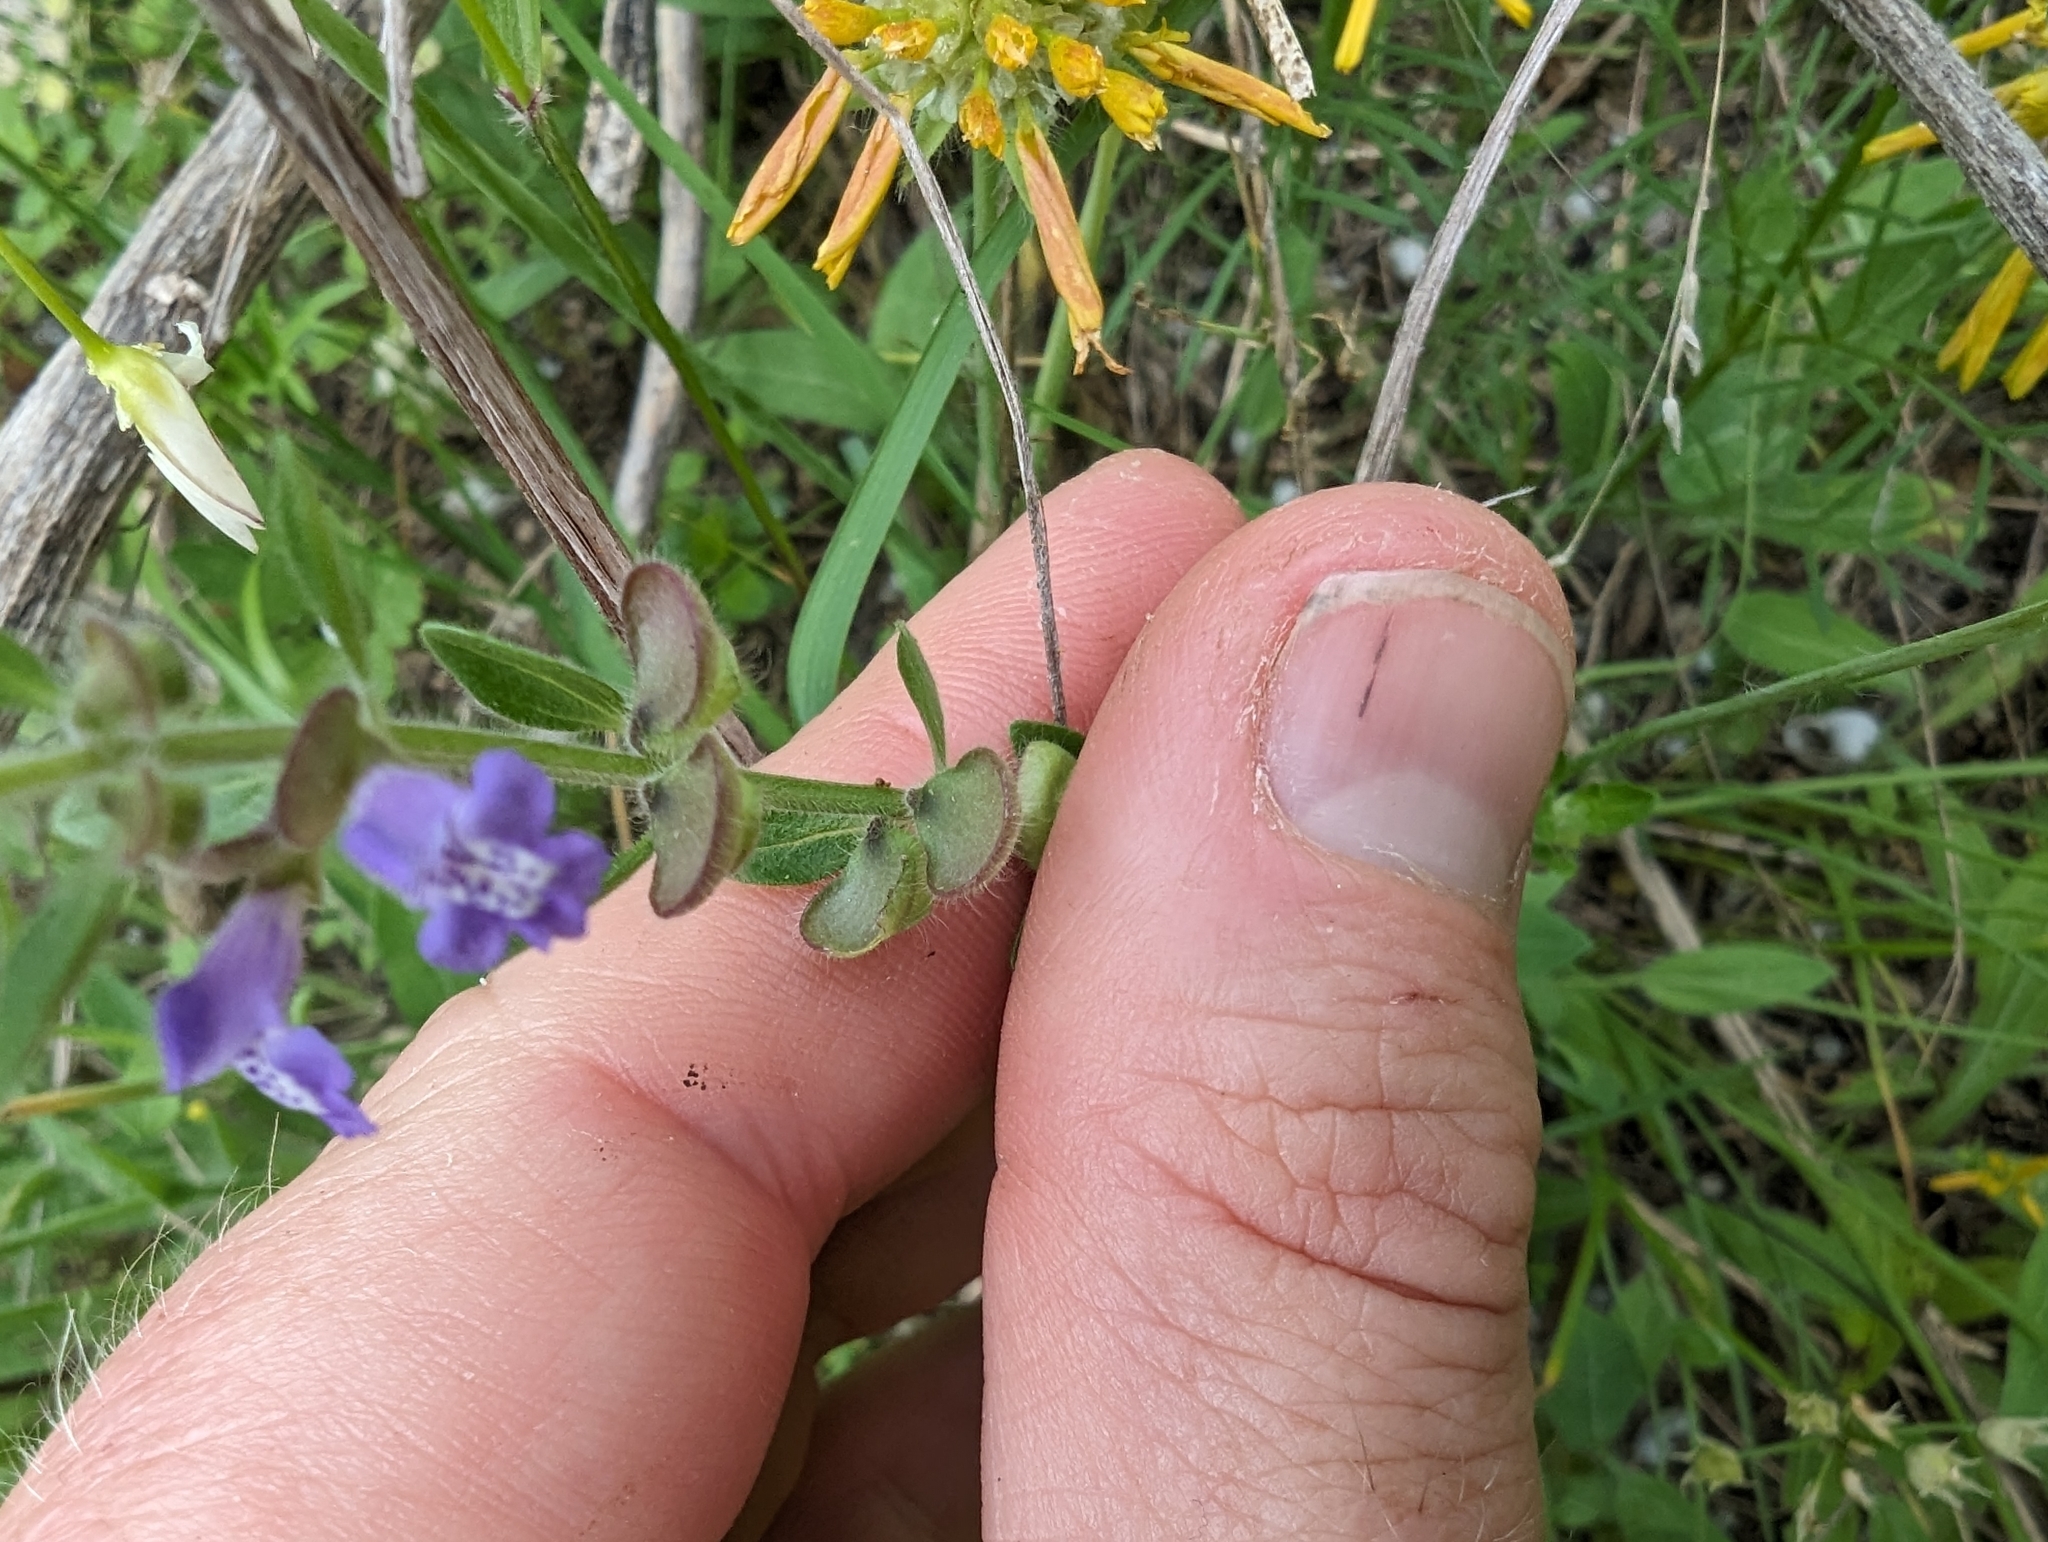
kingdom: Plantae
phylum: Tracheophyta
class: Magnoliopsida
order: Lamiales
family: Lamiaceae
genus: Scutellaria
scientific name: Scutellaria drummondii
